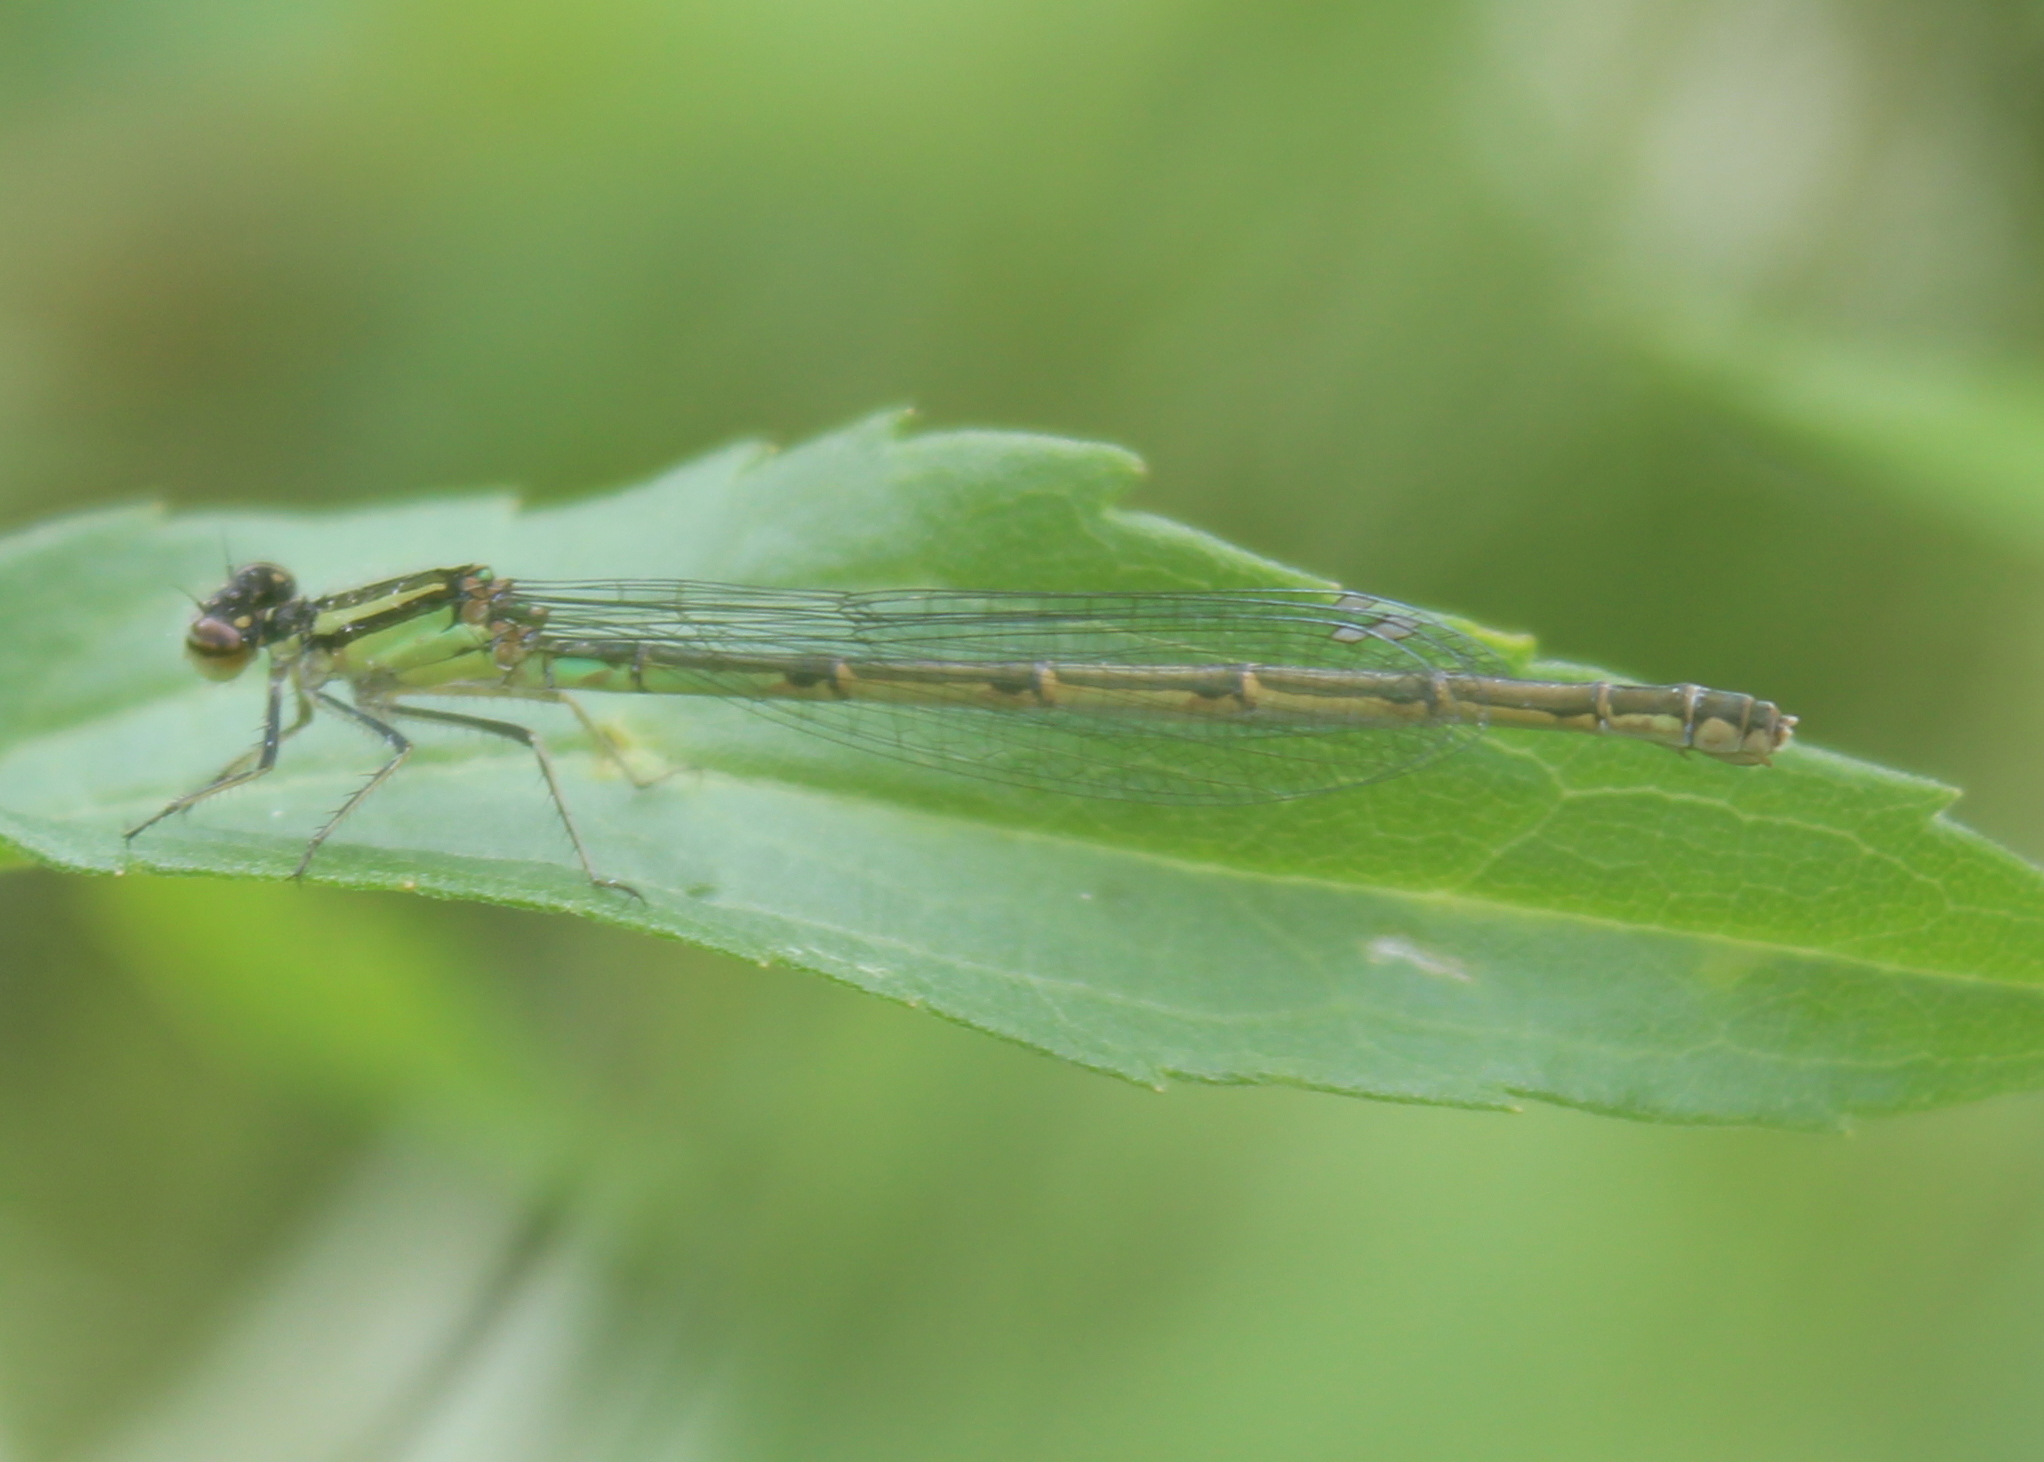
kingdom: Animalia
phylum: Arthropoda
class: Insecta
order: Odonata
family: Coenagrionidae
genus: Enallagma
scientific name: Enallagma
